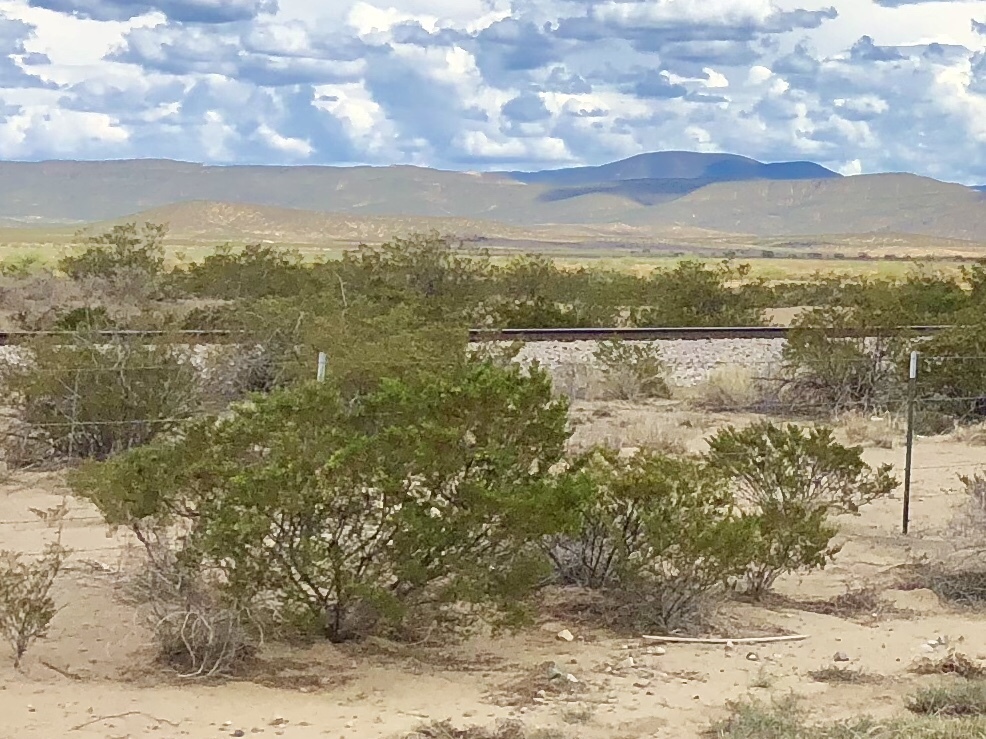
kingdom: Plantae
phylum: Tracheophyta
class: Magnoliopsida
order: Zygophyllales
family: Zygophyllaceae
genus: Larrea
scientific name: Larrea tridentata
